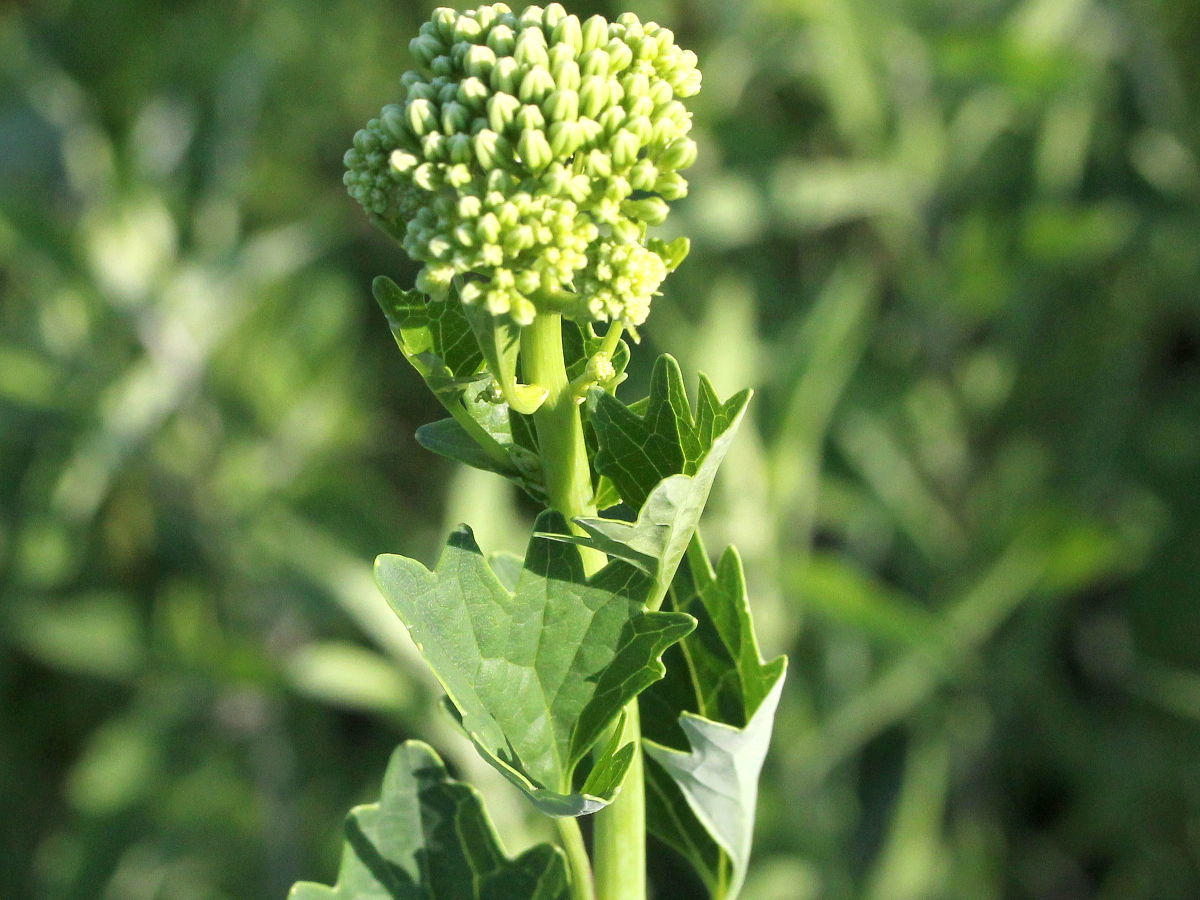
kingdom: Plantae
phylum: Tracheophyta
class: Magnoliopsida
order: Asterales
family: Asteraceae
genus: Arnoglossum
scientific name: Arnoglossum atriplicifolium
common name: Pale indian-plantain
